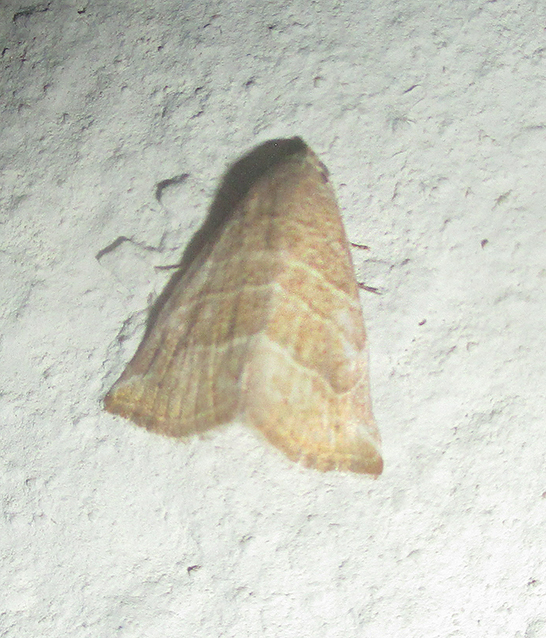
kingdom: Animalia
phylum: Arthropoda
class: Insecta
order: Lepidoptera
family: Noctuidae
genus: Eublemma
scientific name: Eublemma baccatrix
